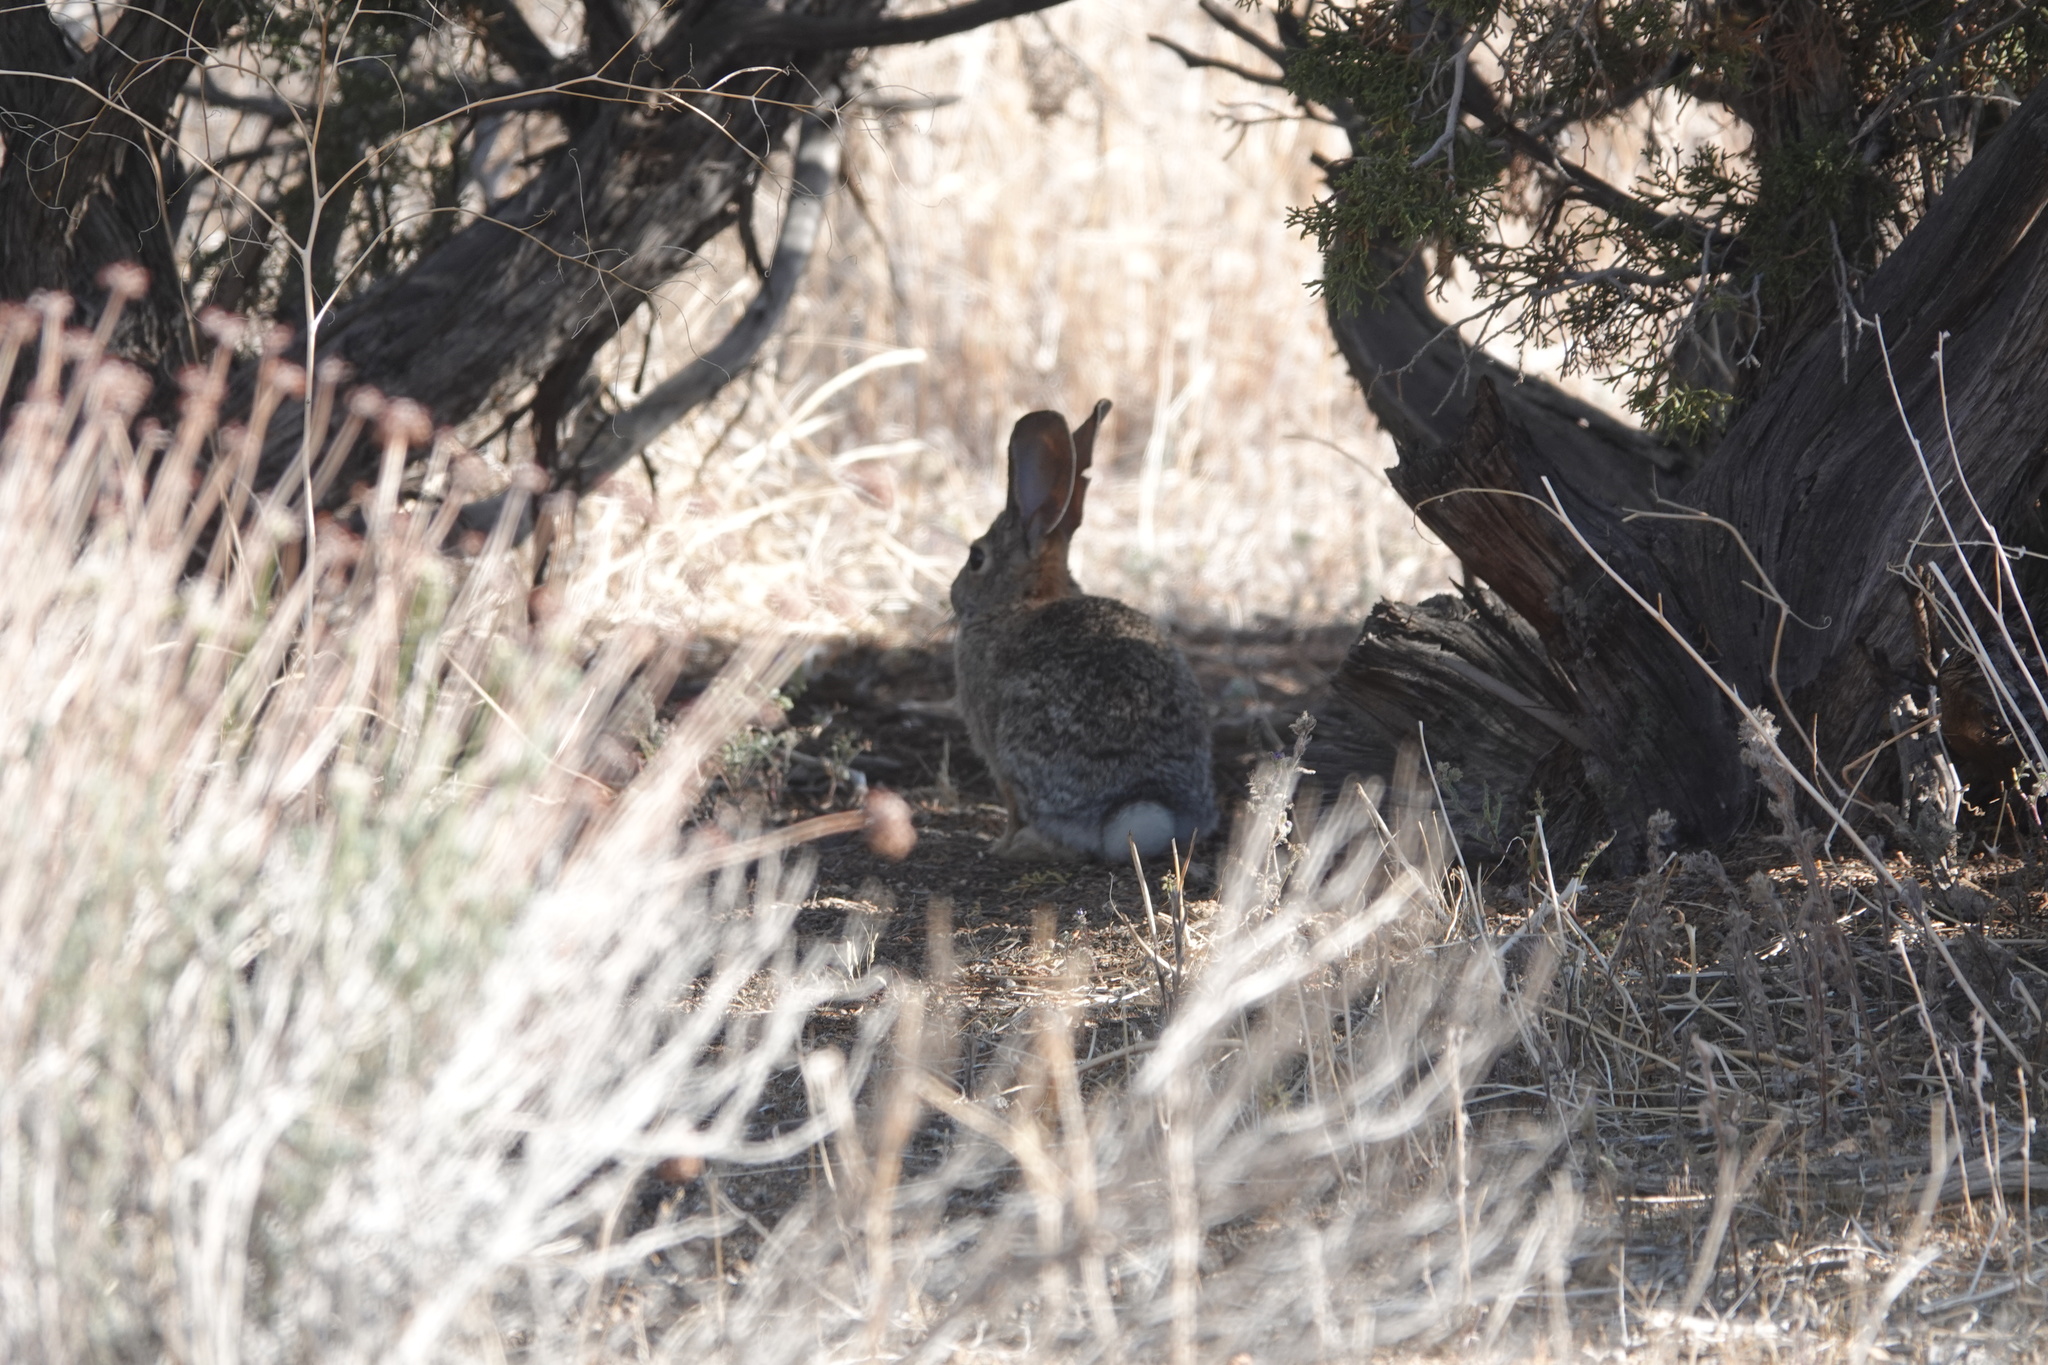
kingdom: Animalia
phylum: Chordata
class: Mammalia
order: Lagomorpha
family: Leporidae
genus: Sylvilagus
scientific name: Sylvilagus audubonii
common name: Desert cottontail
